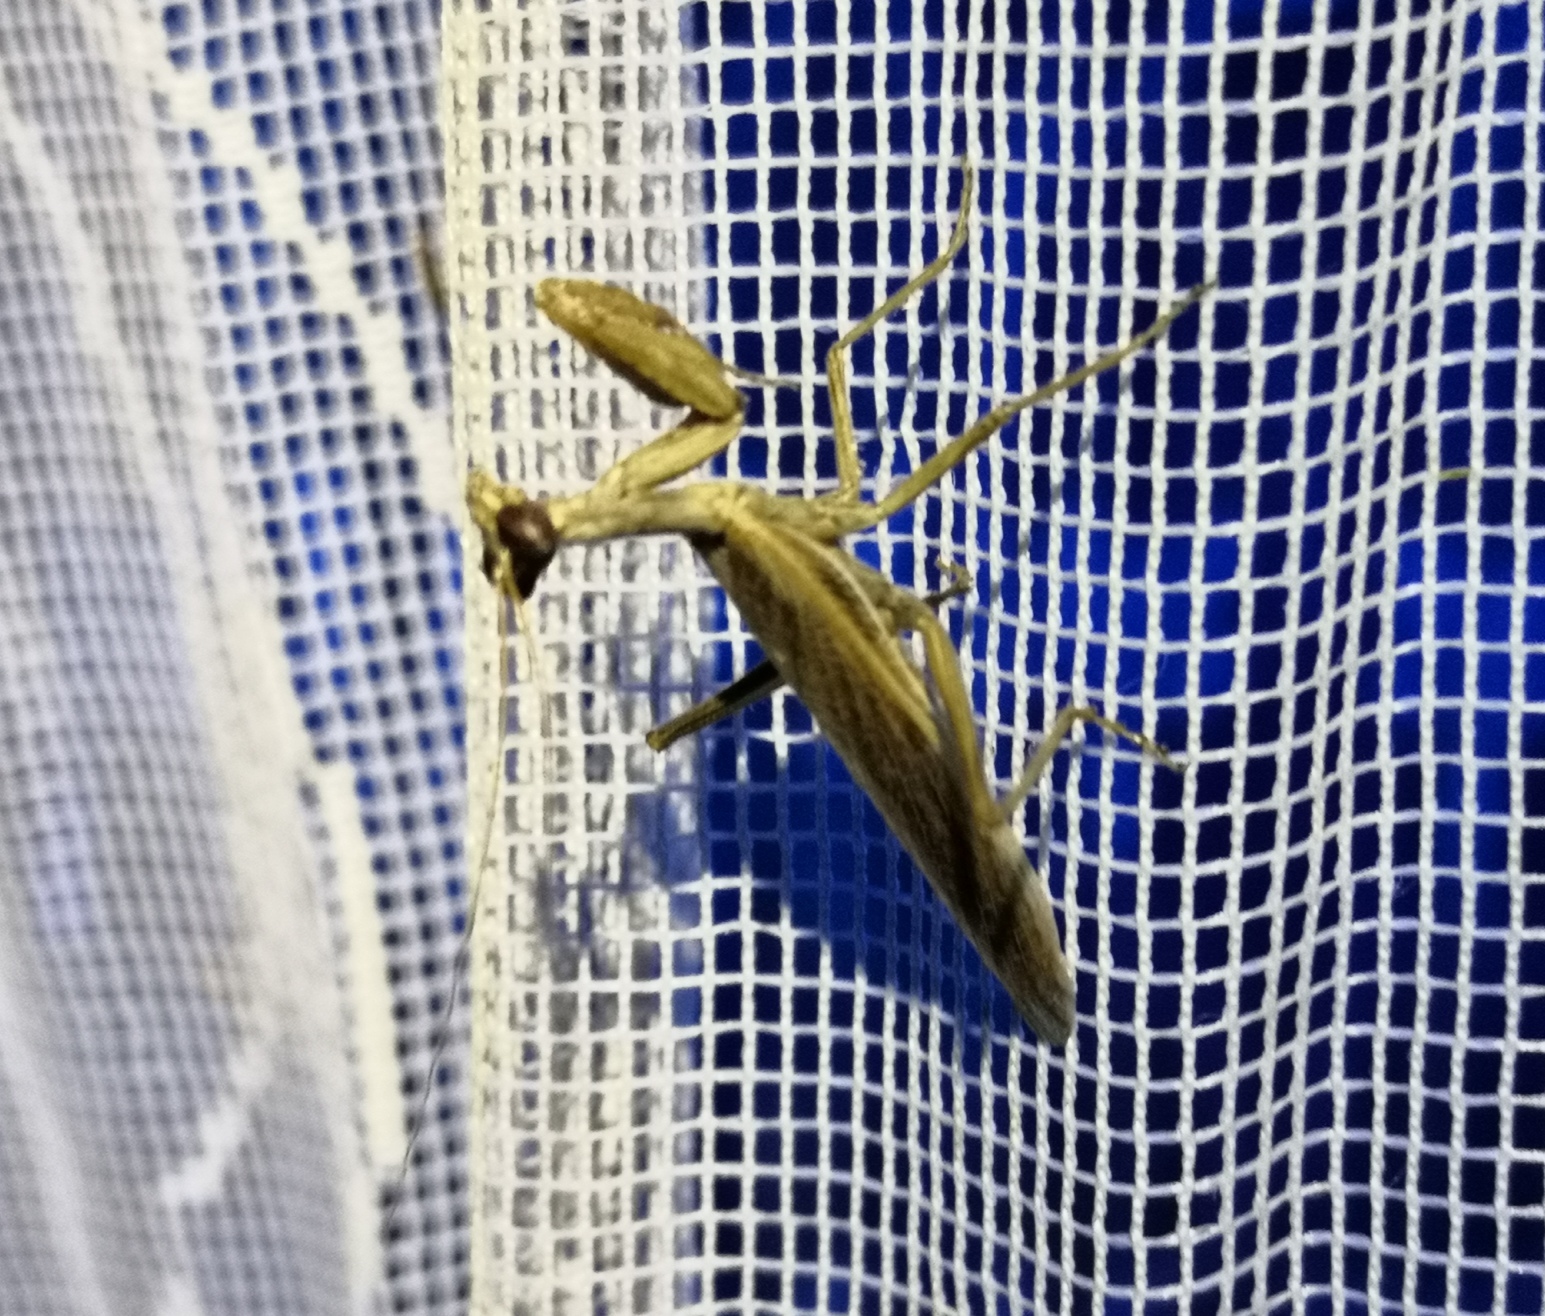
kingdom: Animalia
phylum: Arthropoda
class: Insecta
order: Mantodea
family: Amelidae
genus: Ameles
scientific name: Ameles heldreichi
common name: Heldreich's dwarf mantis
